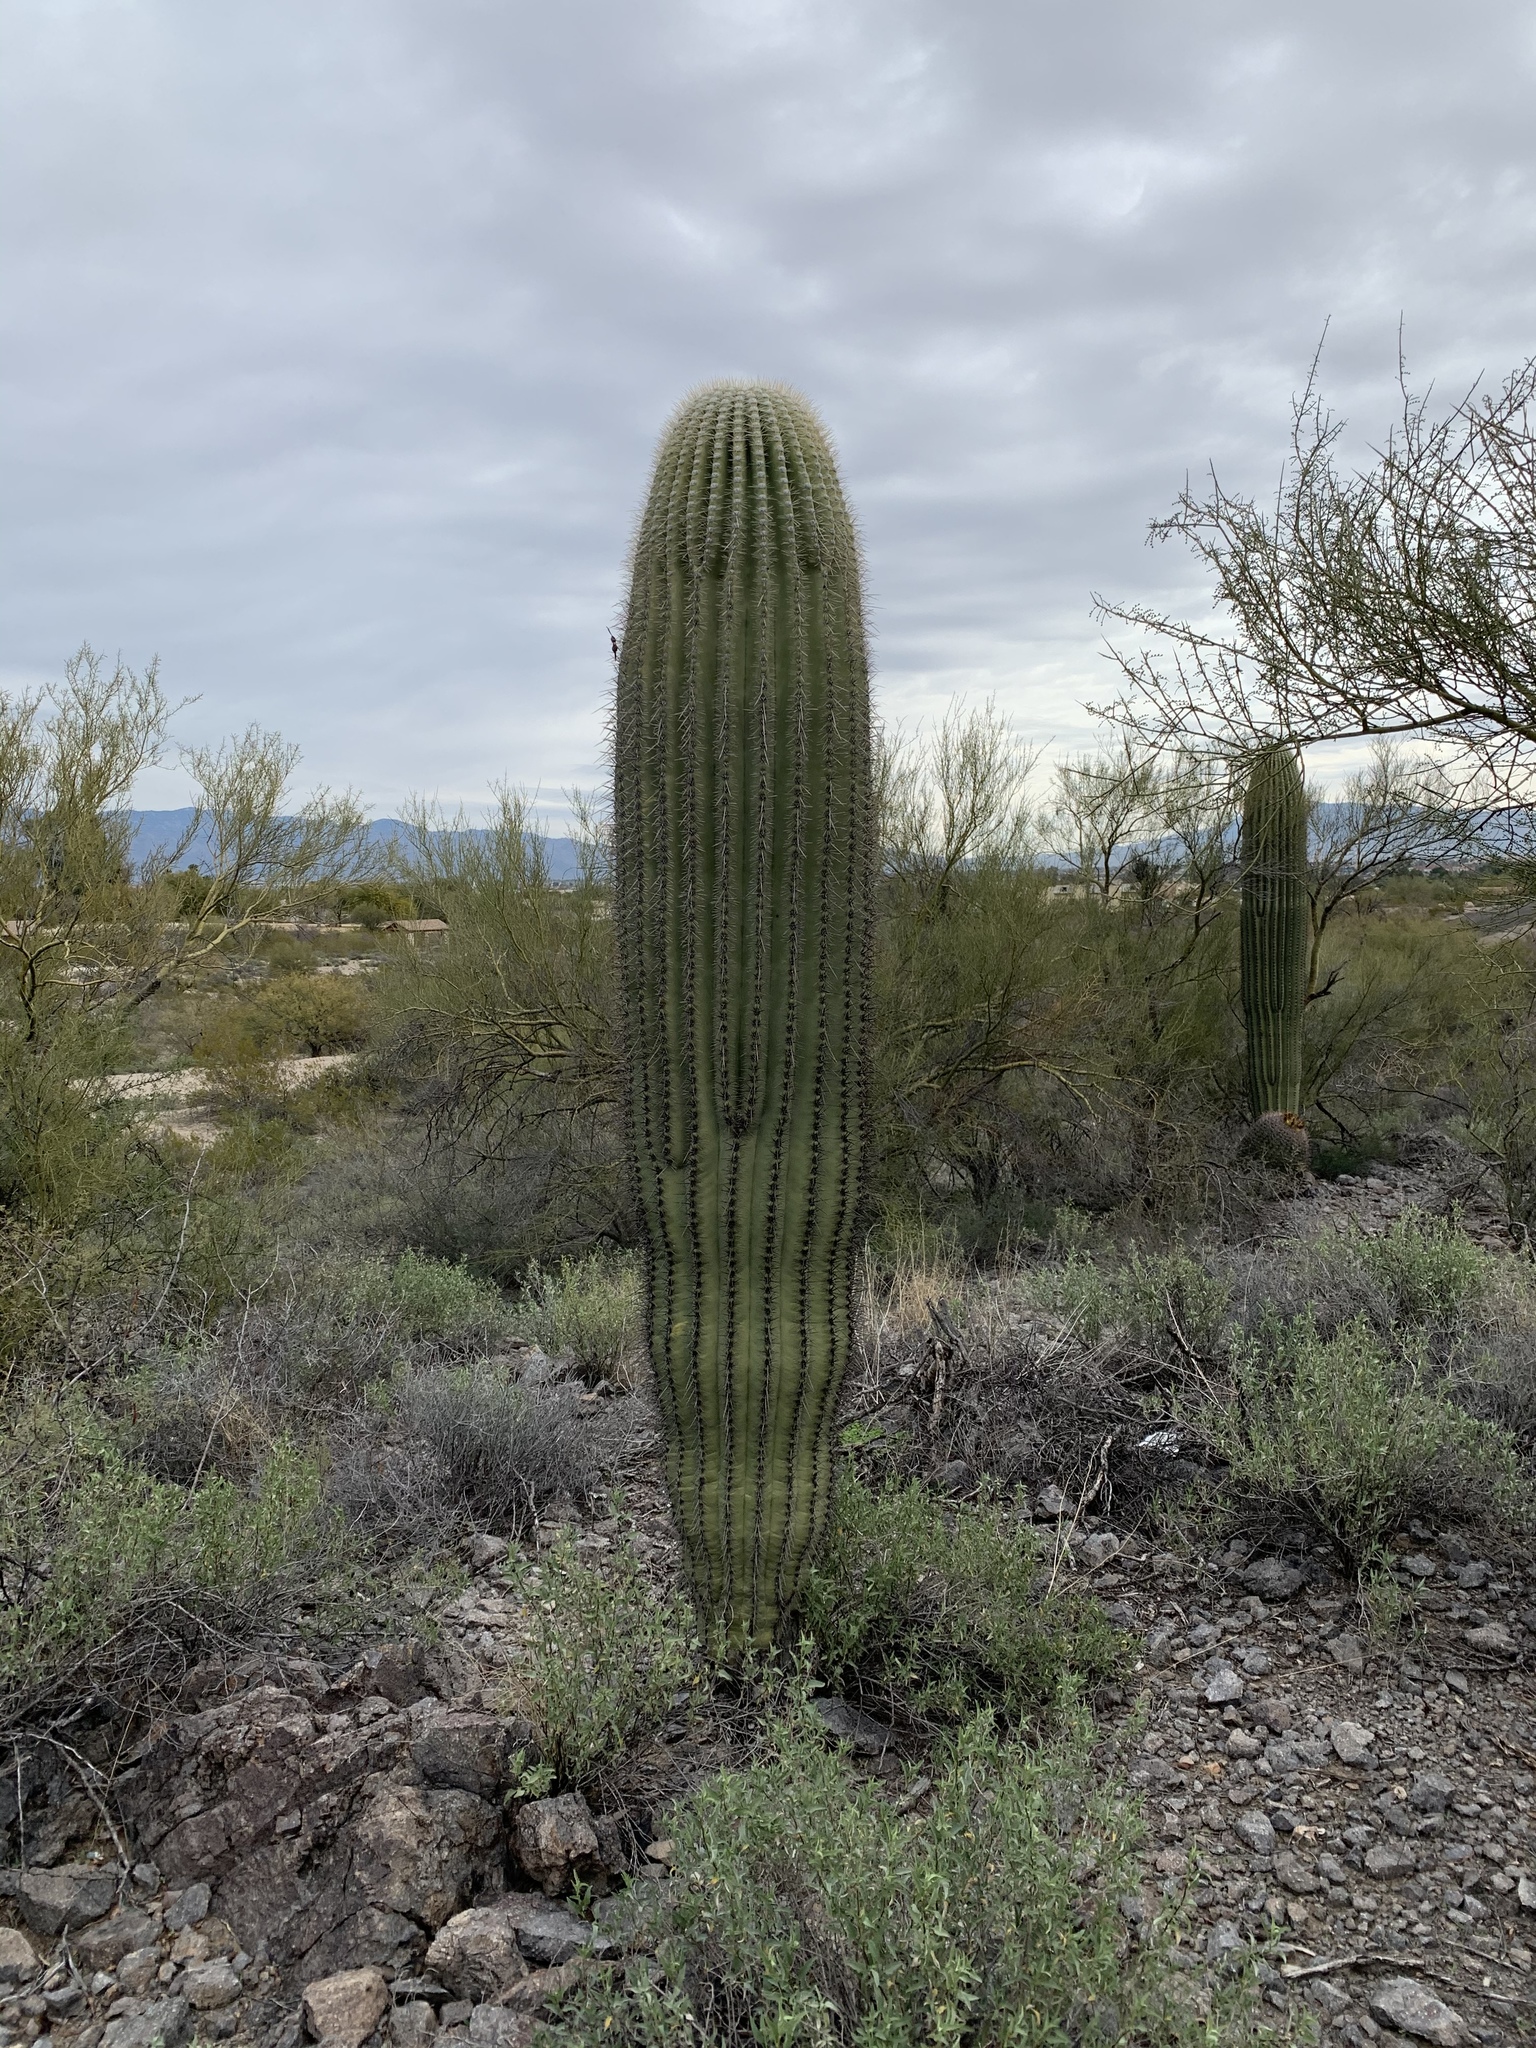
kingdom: Plantae
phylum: Tracheophyta
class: Magnoliopsida
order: Caryophyllales
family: Cactaceae
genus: Carnegiea
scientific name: Carnegiea gigantea
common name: Saguaro
